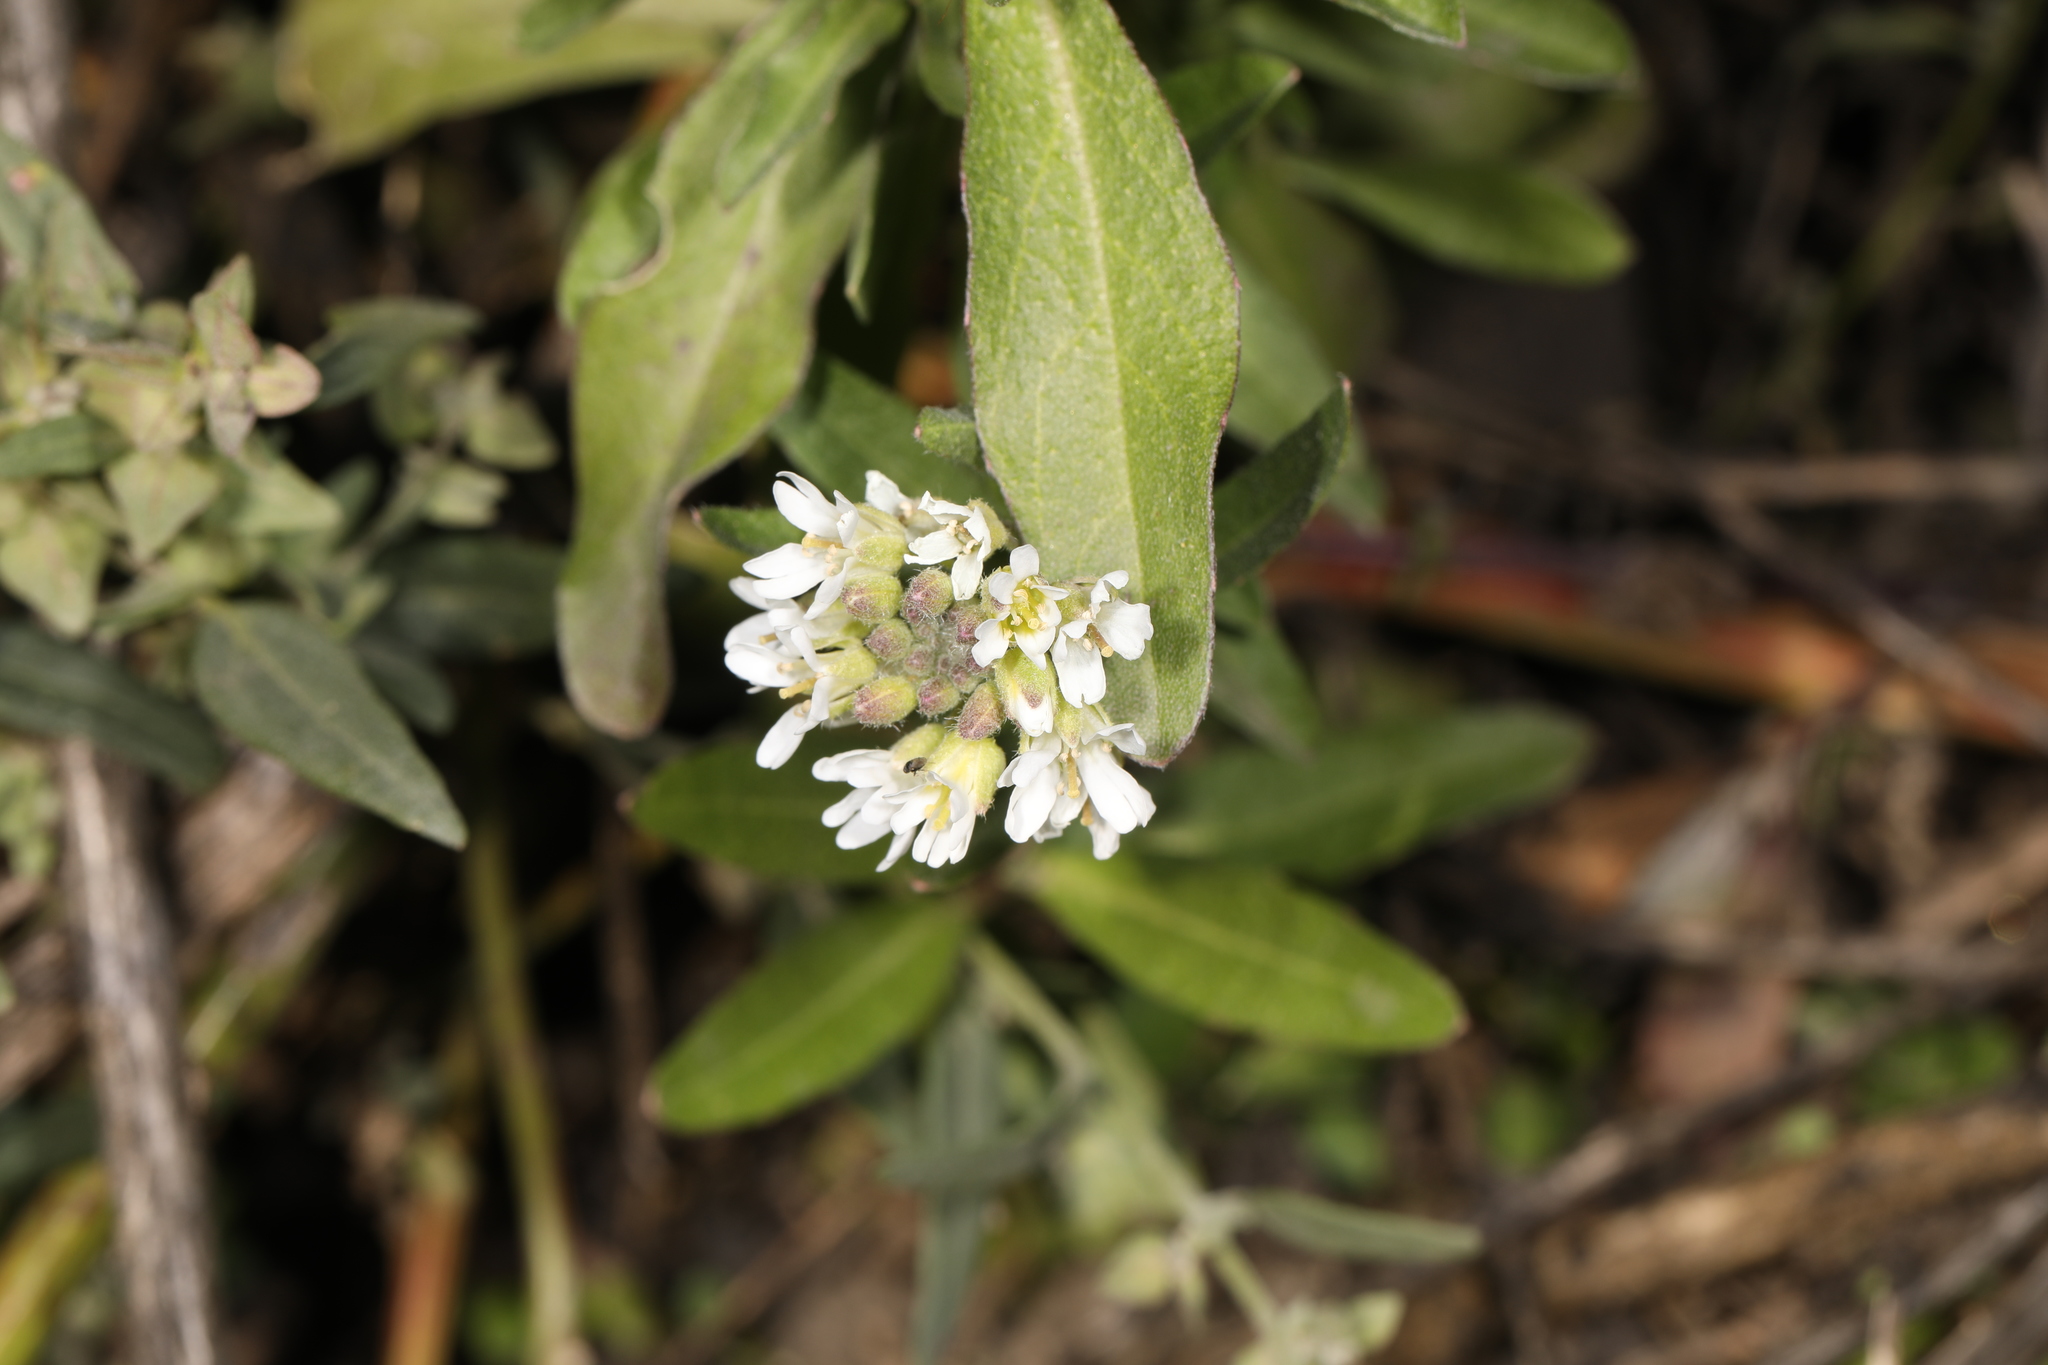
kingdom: Plantae
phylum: Tracheophyta
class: Magnoliopsida
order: Brassicales
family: Brassicaceae
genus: Berteroa
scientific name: Berteroa incana
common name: Hoary alison
